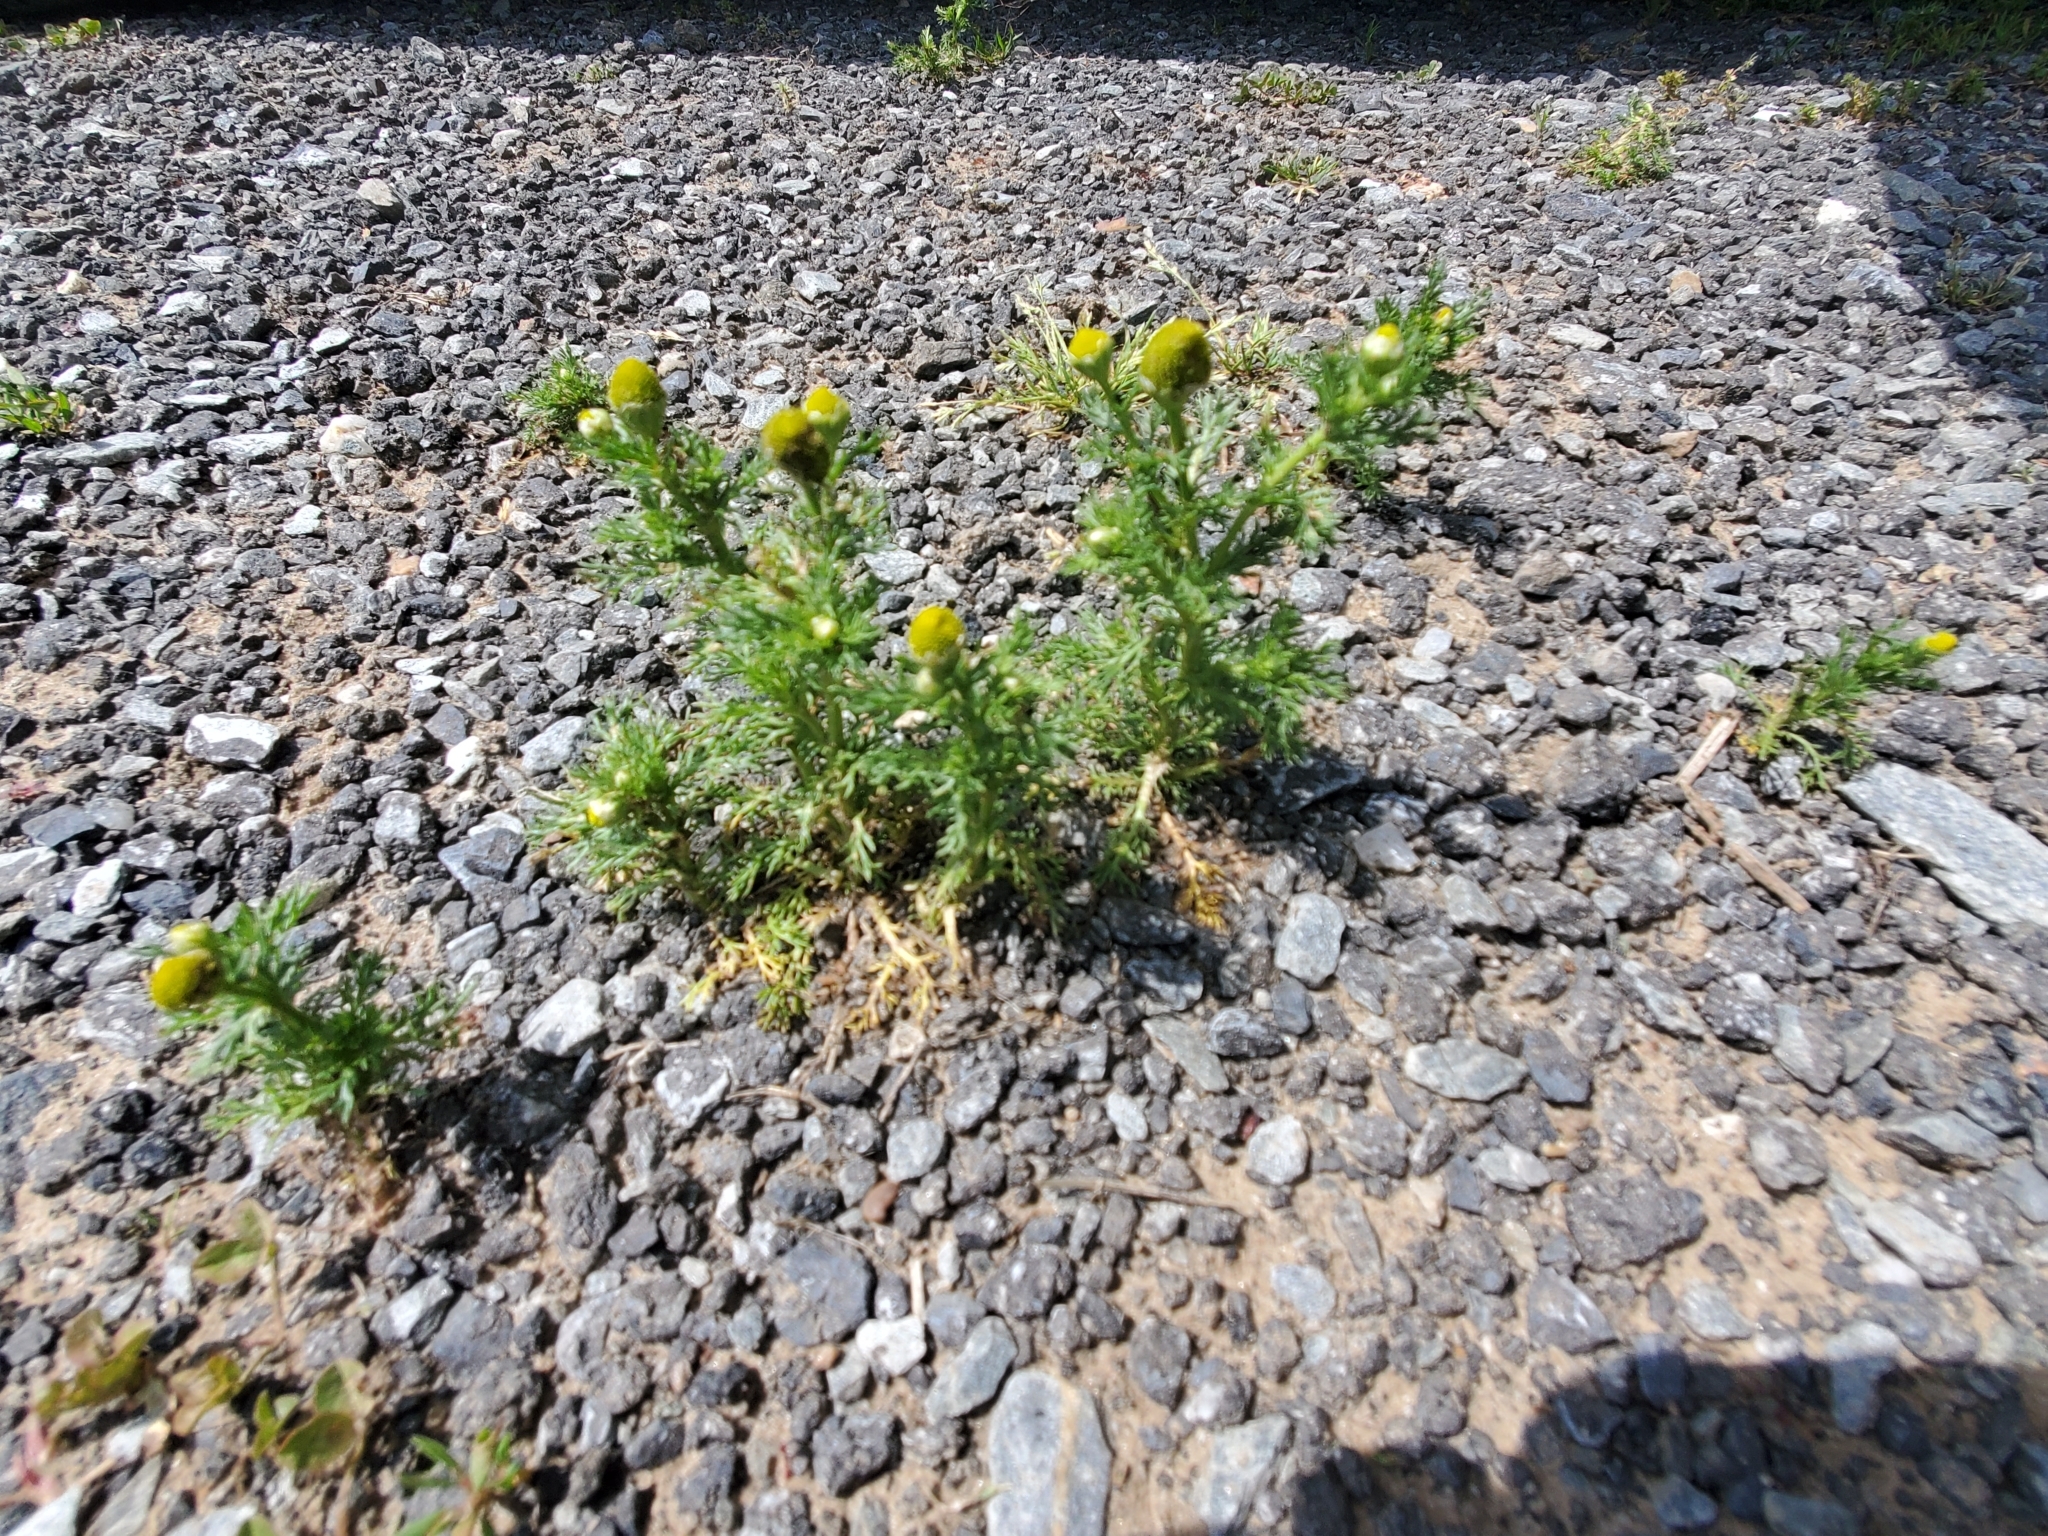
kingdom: Plantae
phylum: Tracheophyta
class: Magnoliopsida
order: Asterales
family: Asteraceae
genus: Matricaria
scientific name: Matricaria discoidea
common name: Disc mayweed
